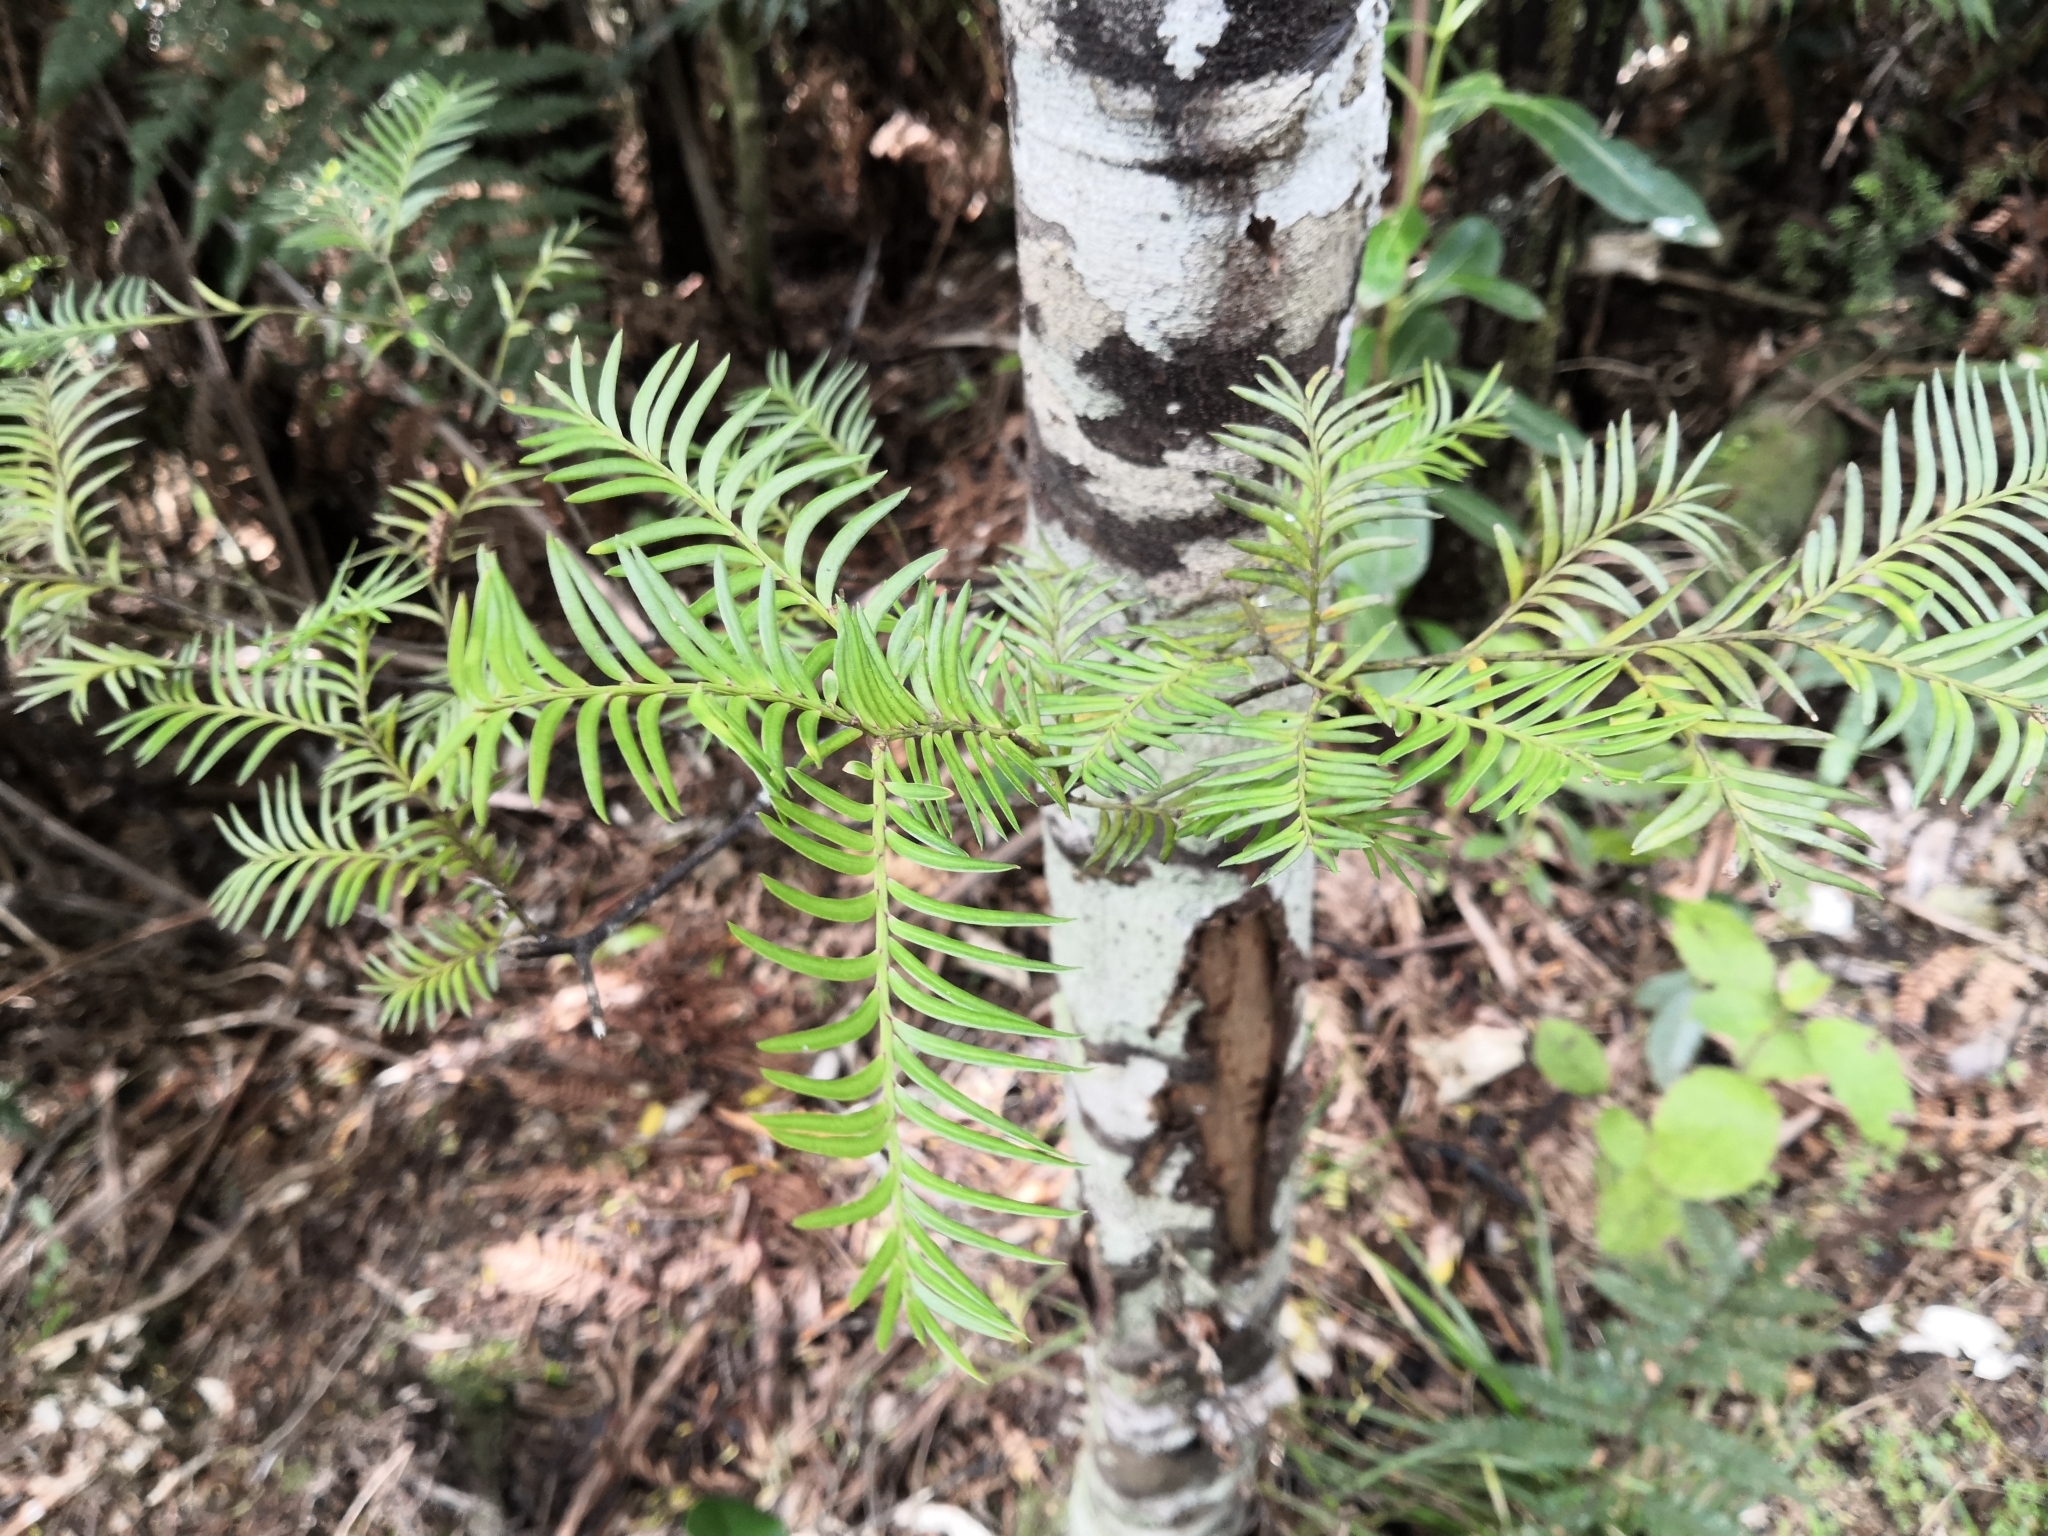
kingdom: Plantae
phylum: Tracheophyta
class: Pinopsida
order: Pinales
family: Podocarpaceae
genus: Prumnopitys
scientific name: Prumnopitys ferruginea
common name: Brown pine
